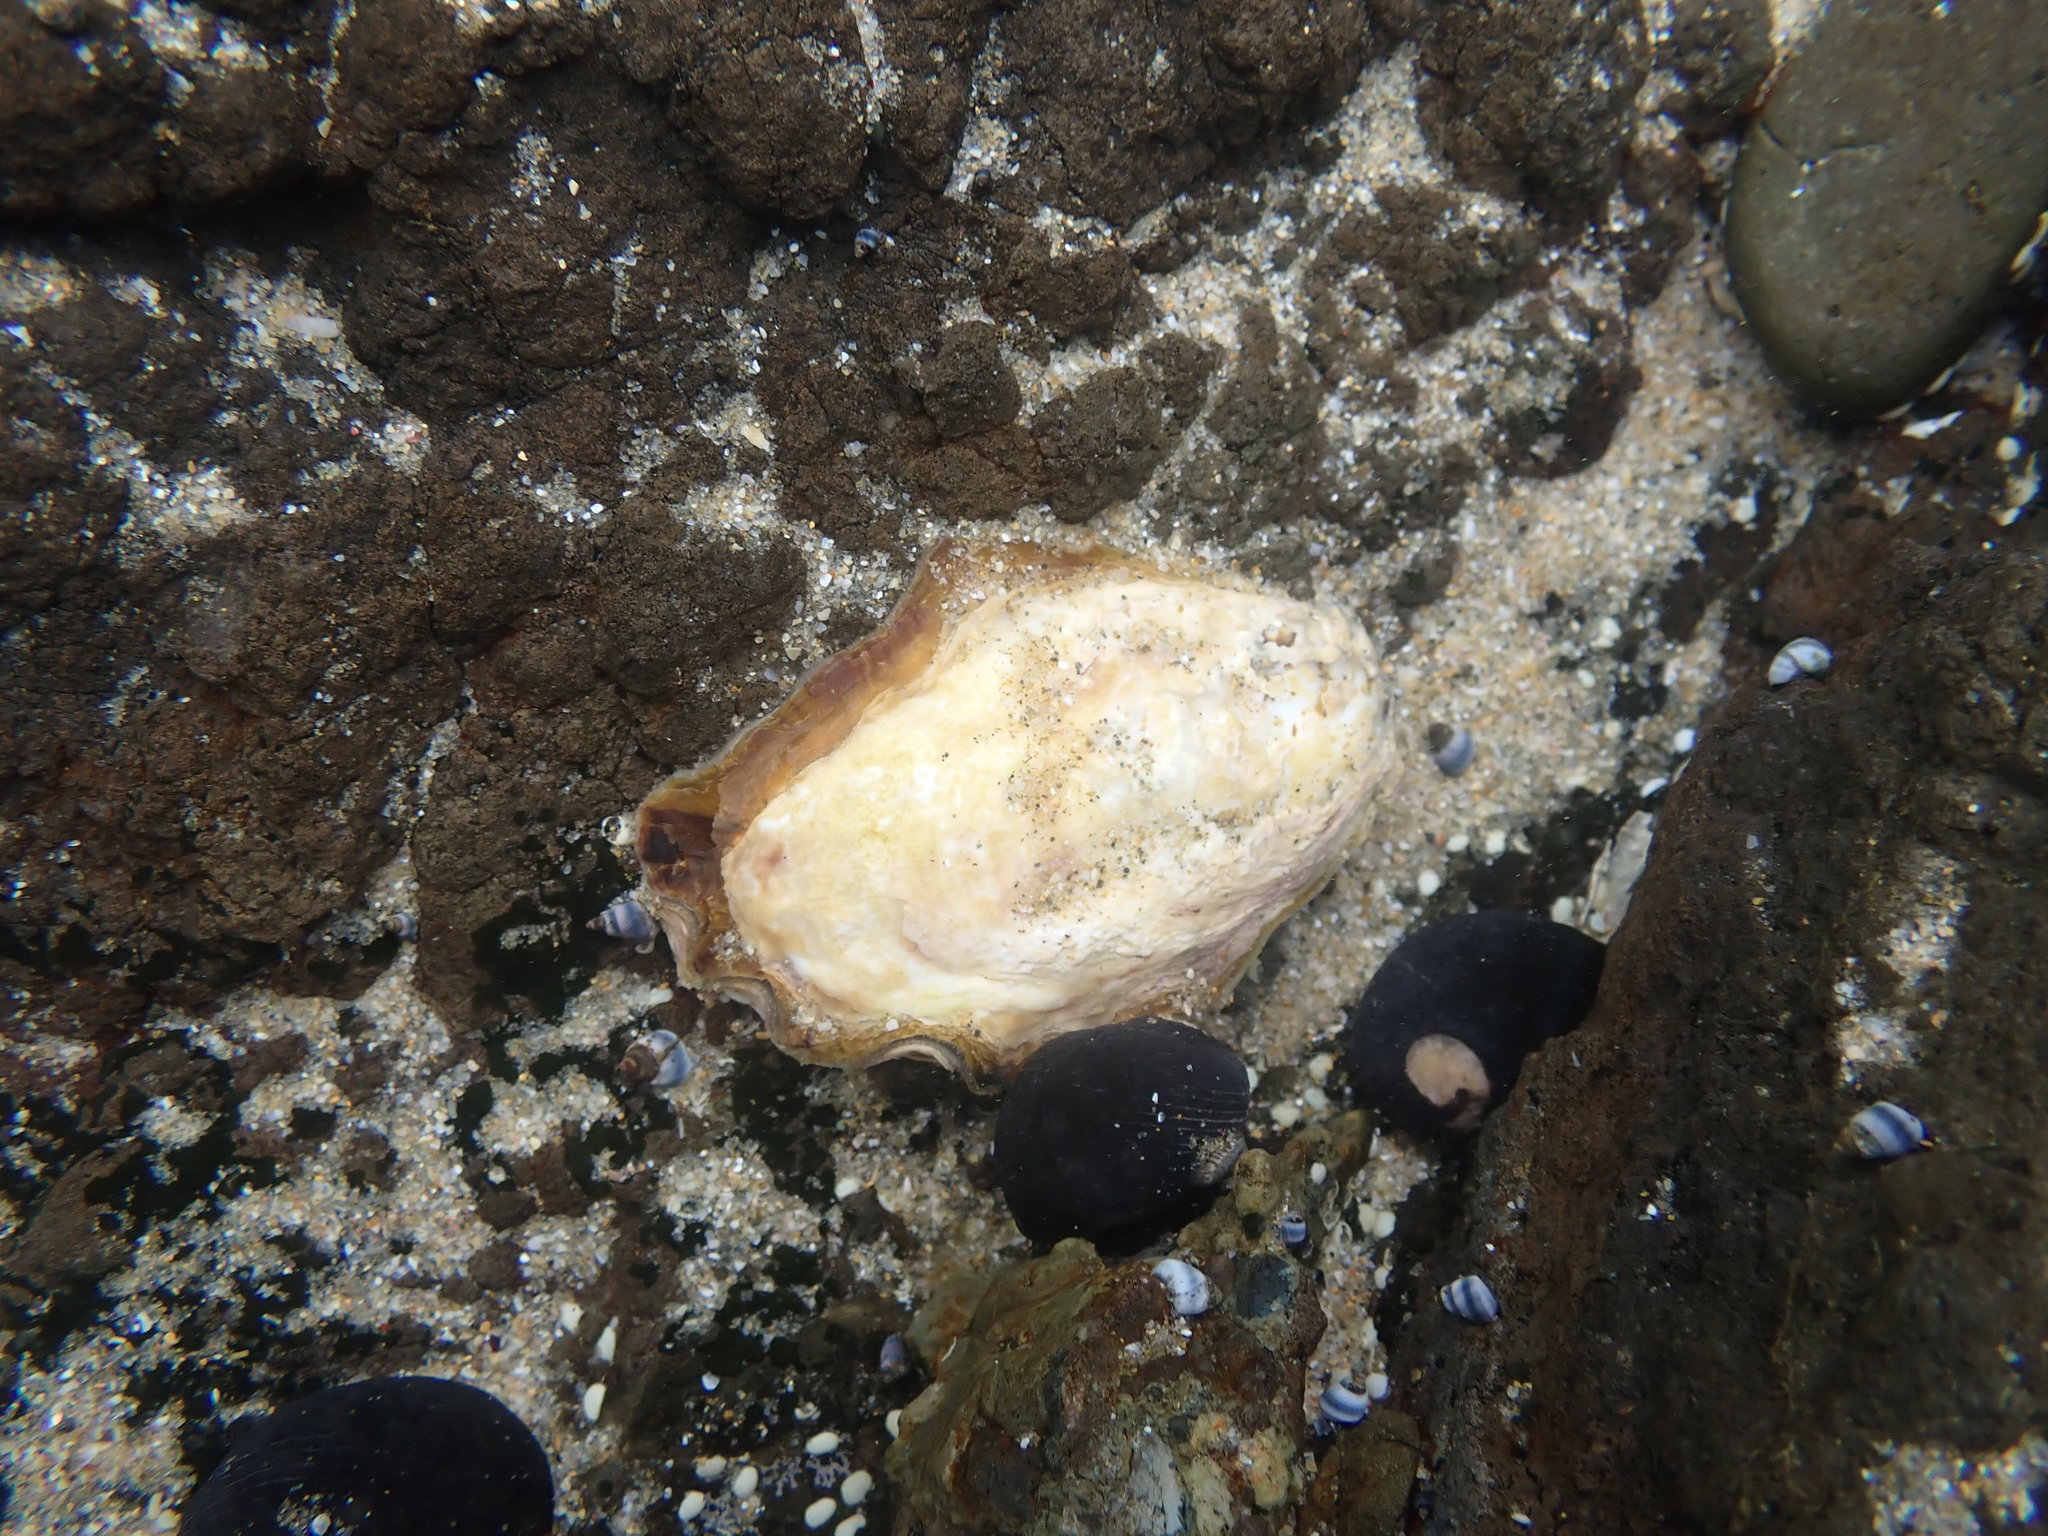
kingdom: Animalia
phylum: Mollusca
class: Bivalvia
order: Ostreida
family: Ostreidae
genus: Saccostrea
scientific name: Saccostrea glomerata
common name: Sydney cupped oyster
